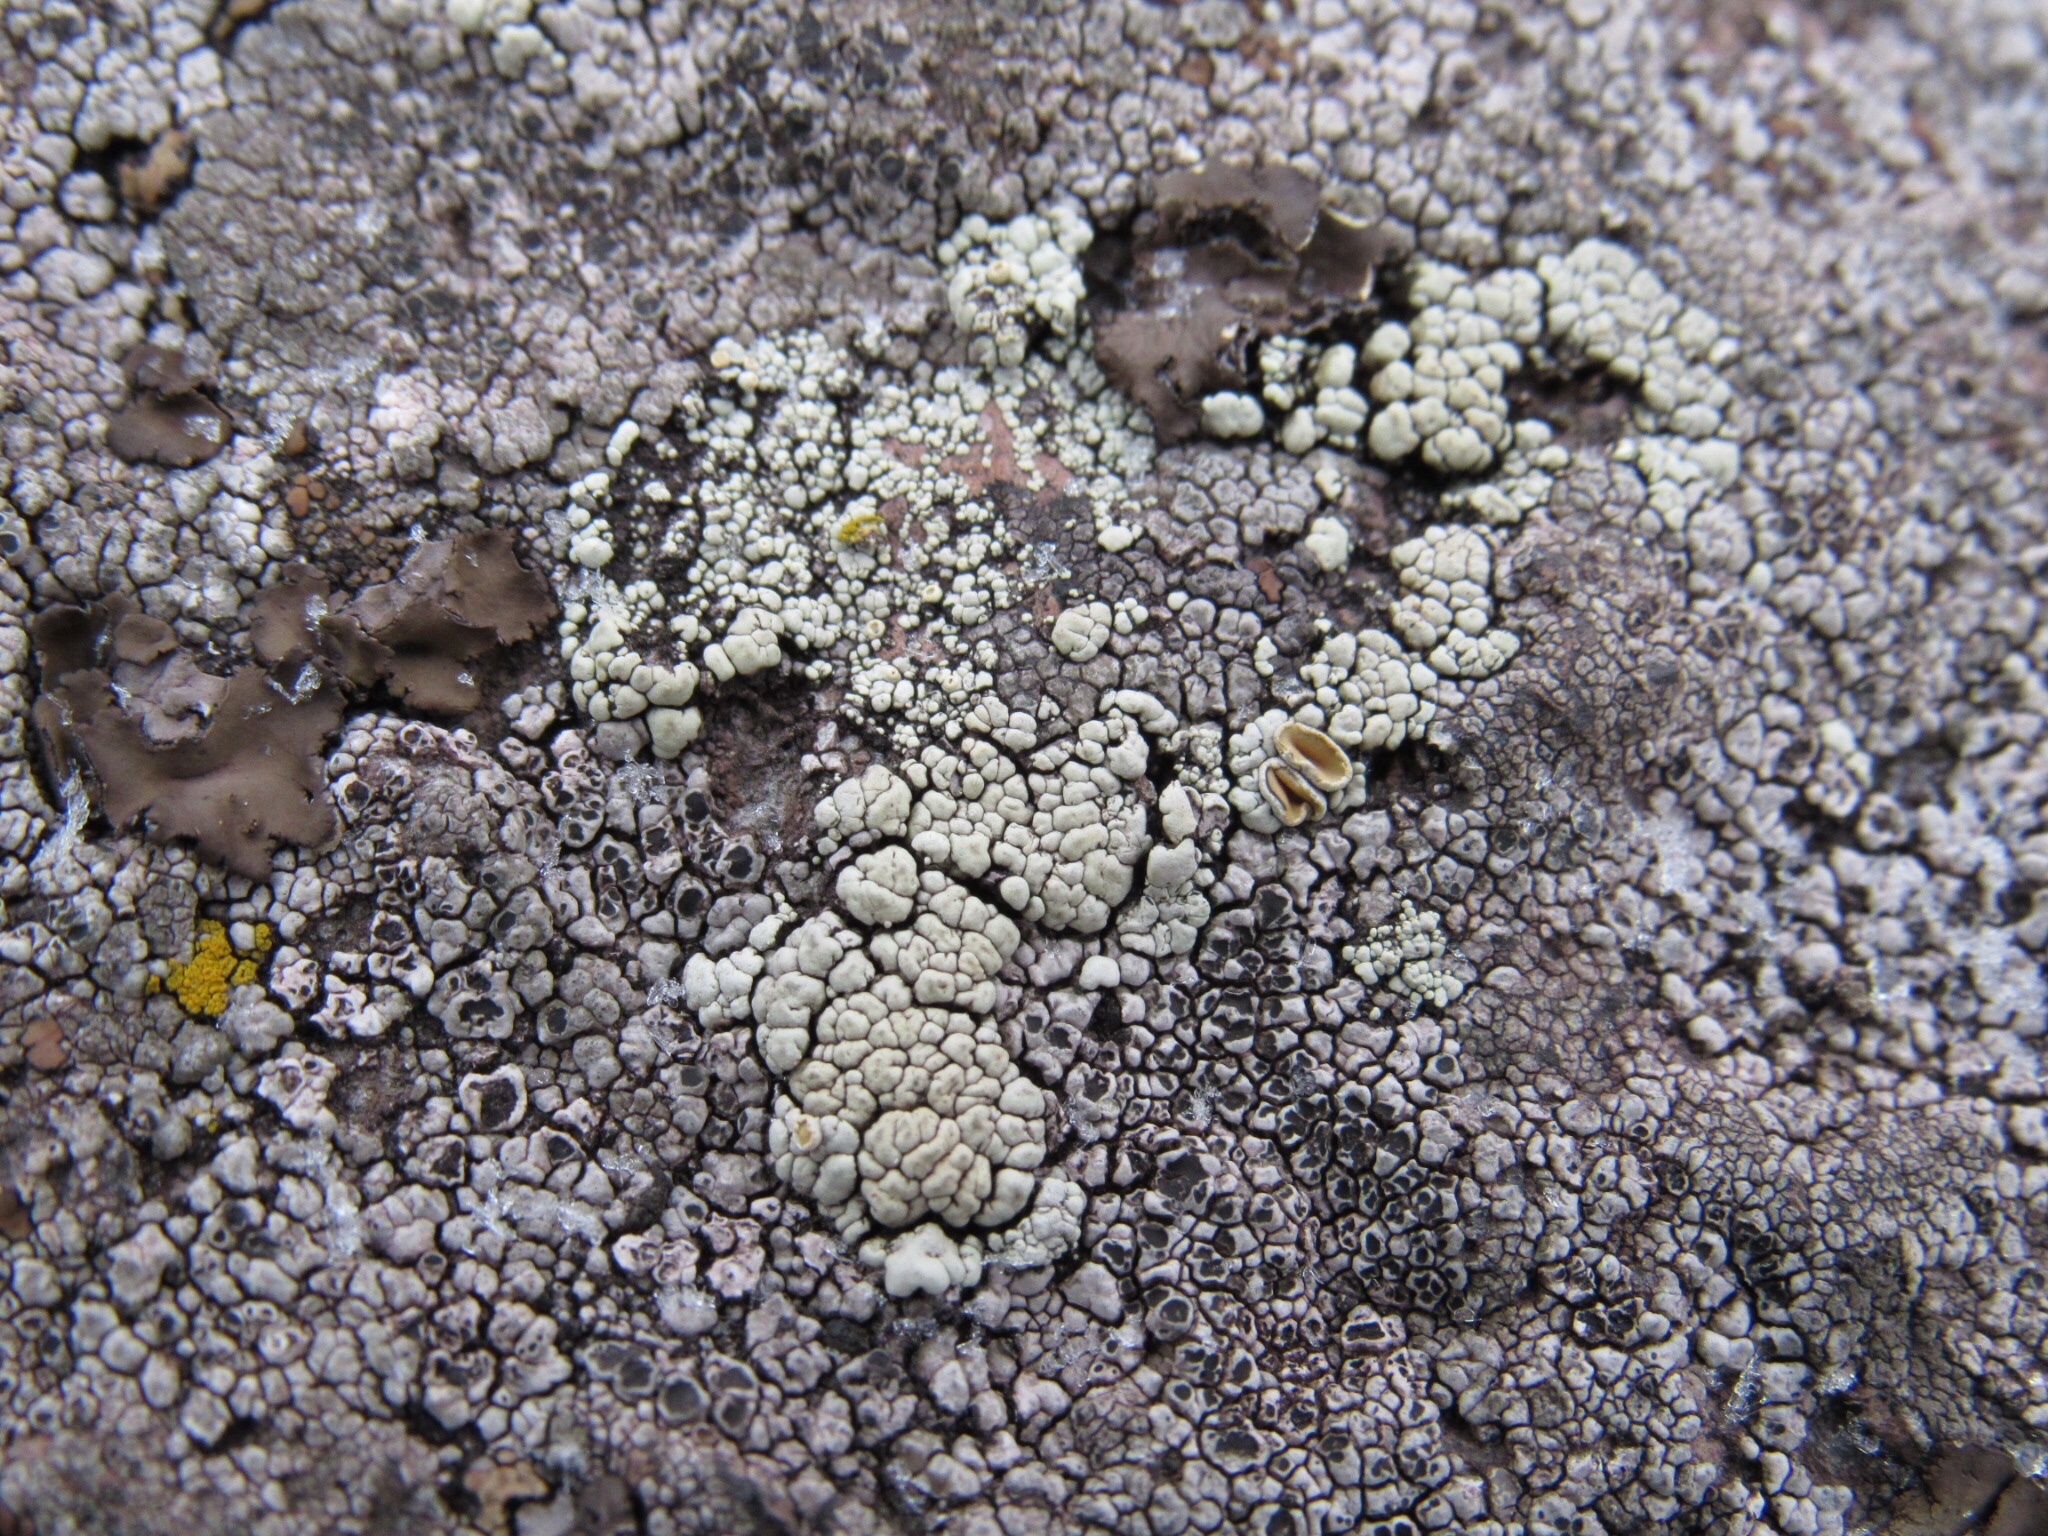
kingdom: Fungi
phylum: Ascomycota
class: Lecanoromycetes
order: Lecanorales
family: Lecanoraceae
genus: Sedelnikovaea
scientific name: Sedelnikovaea subdiscrepans
